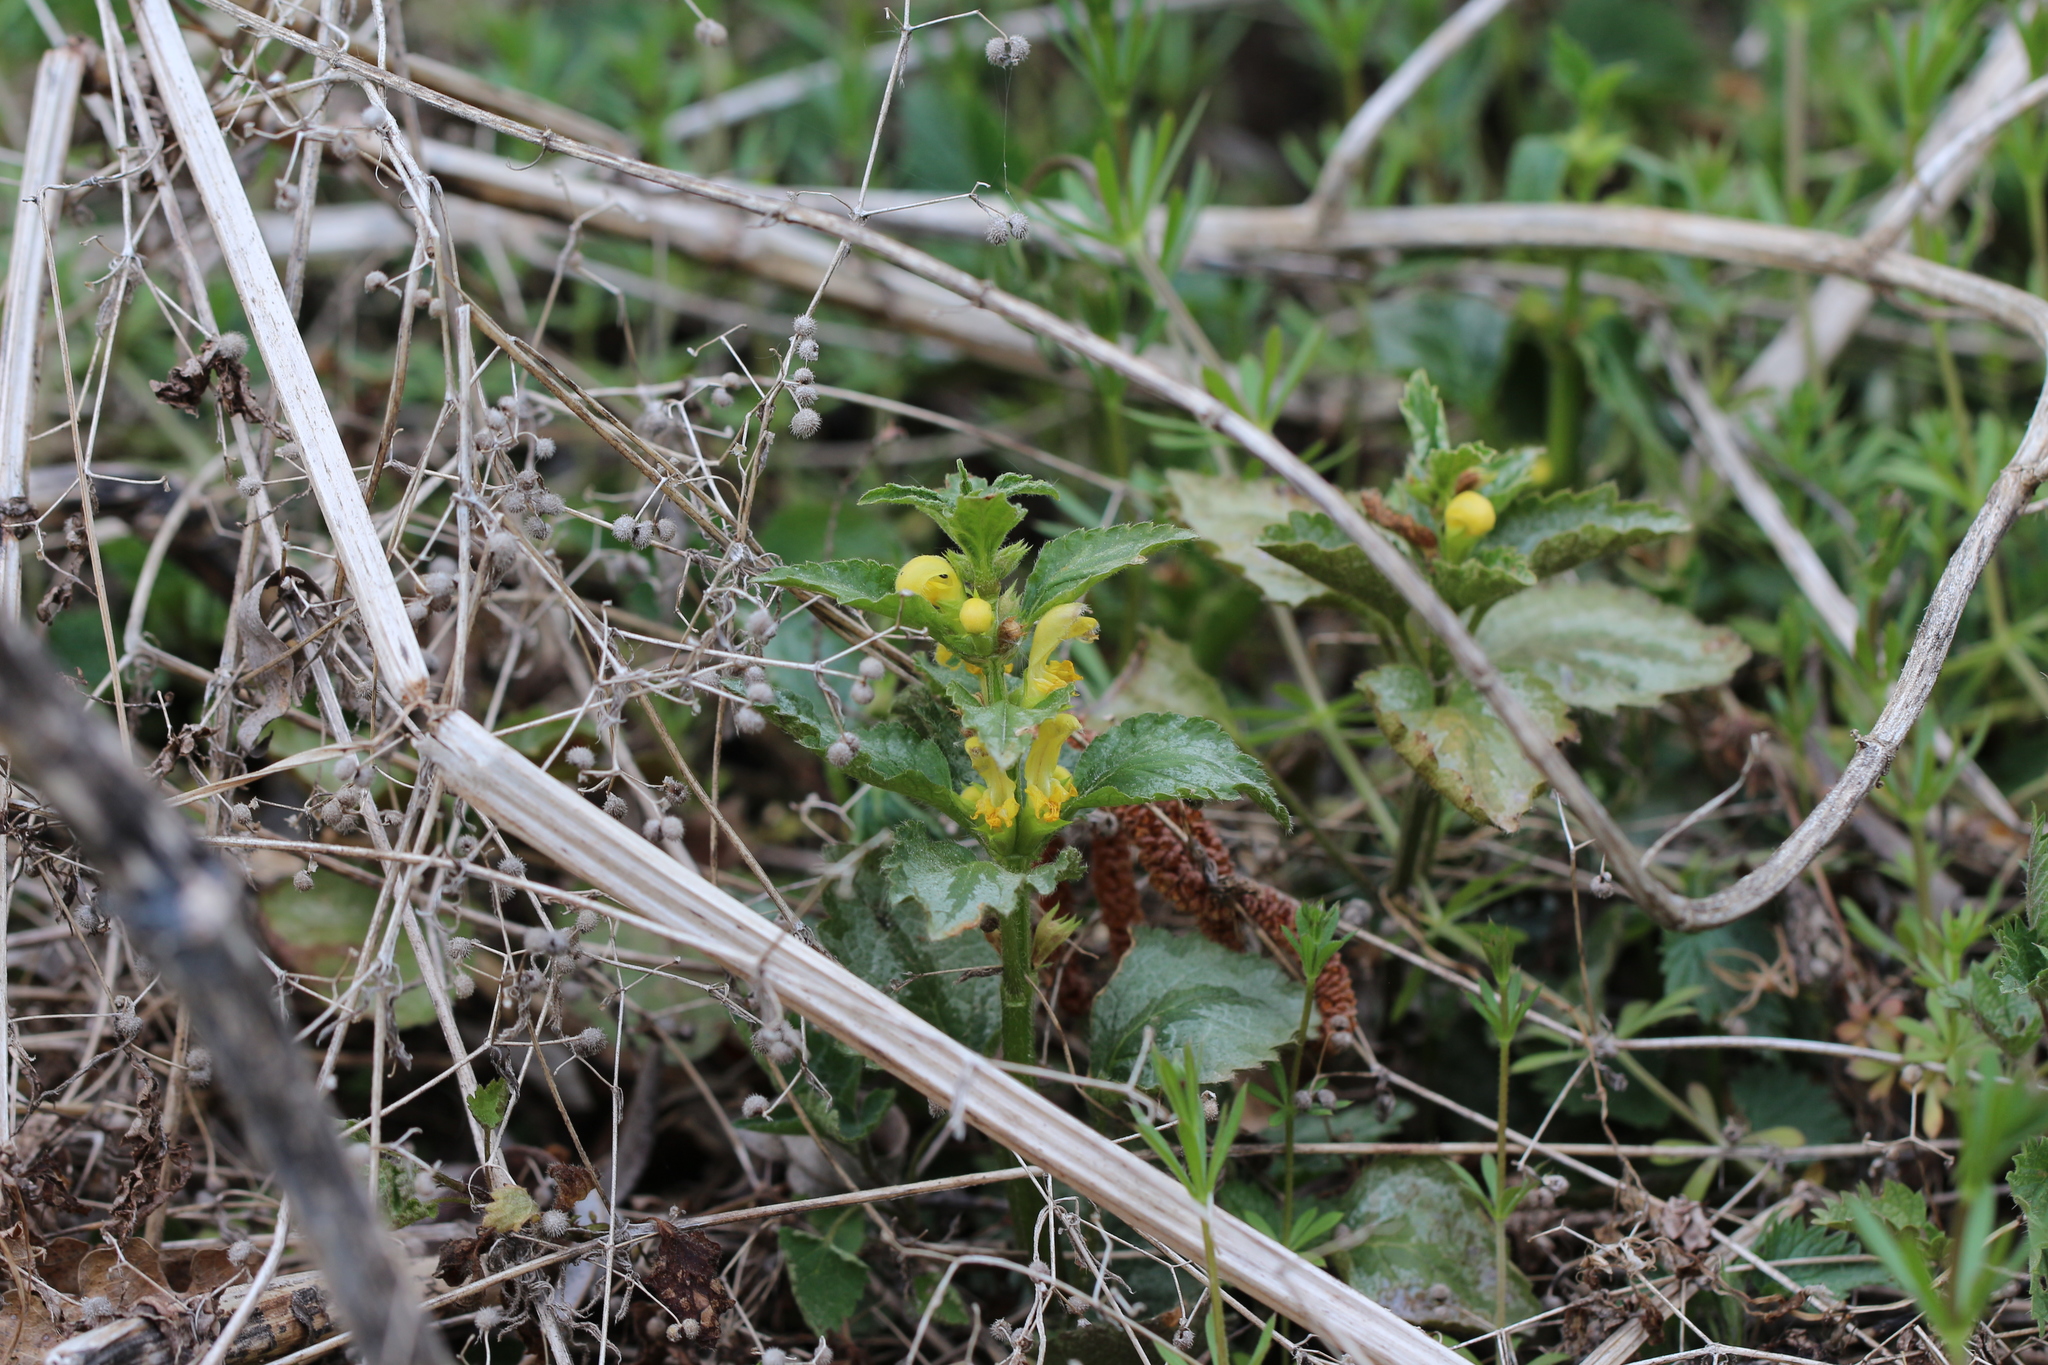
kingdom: Plantae
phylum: Tracheophyta
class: Magnoliopsida
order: Lamiales
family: Lamiaceae
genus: Lamium
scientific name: Lamium galeobdolon
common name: Yellow archangel
